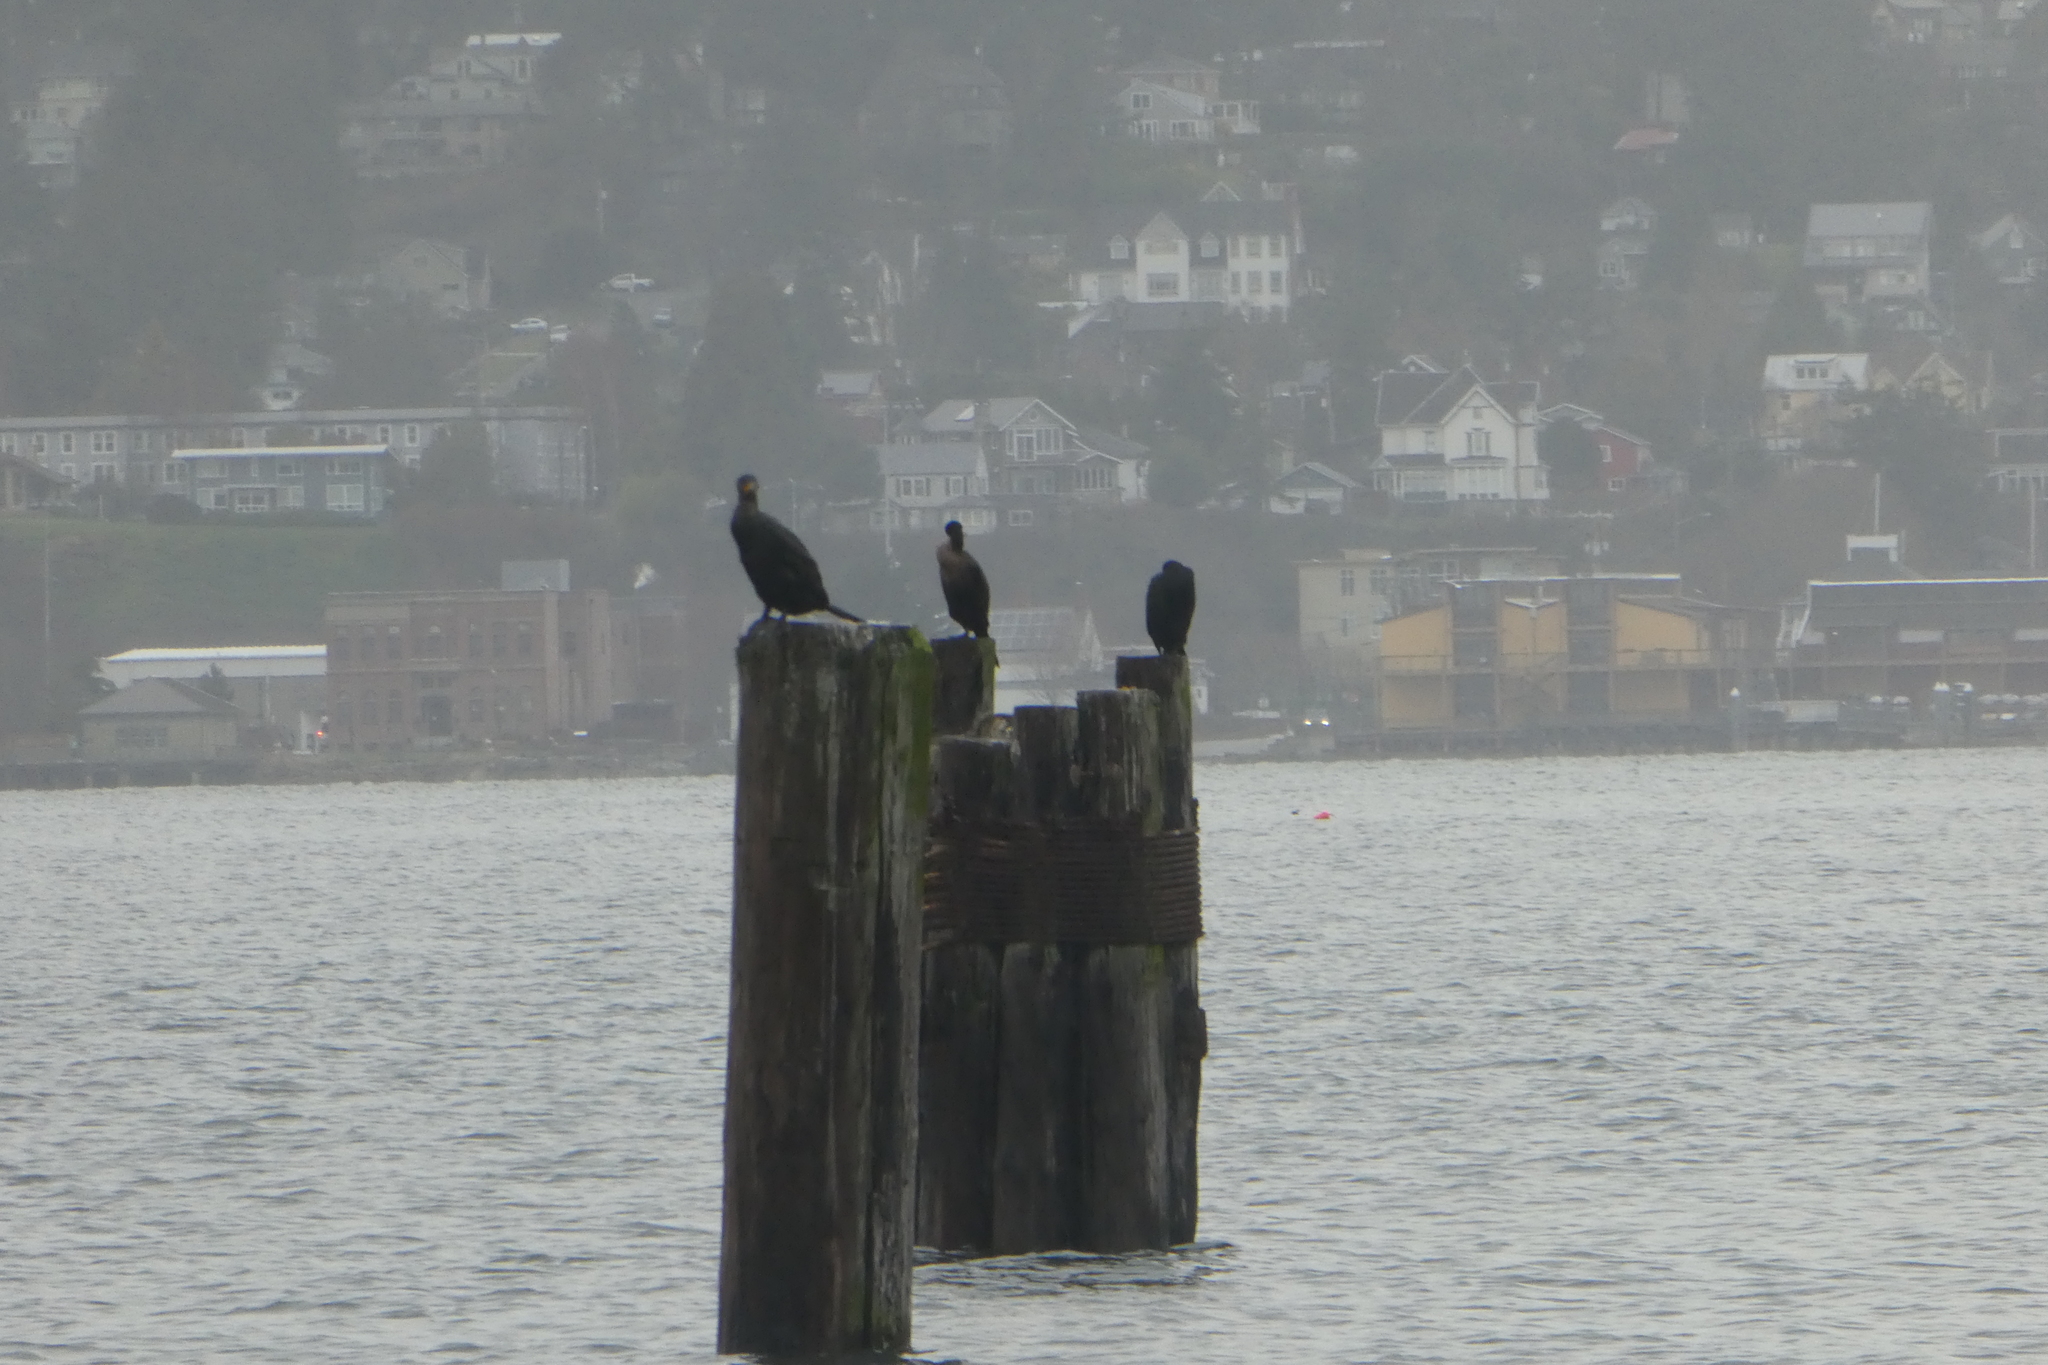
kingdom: Animalia
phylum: Chordata
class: Aves
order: Suliformes
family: Phalacrocoracidae
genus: Phalacrocorax
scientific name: Phalacrocorax auritus
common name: Double-crested cormorant
